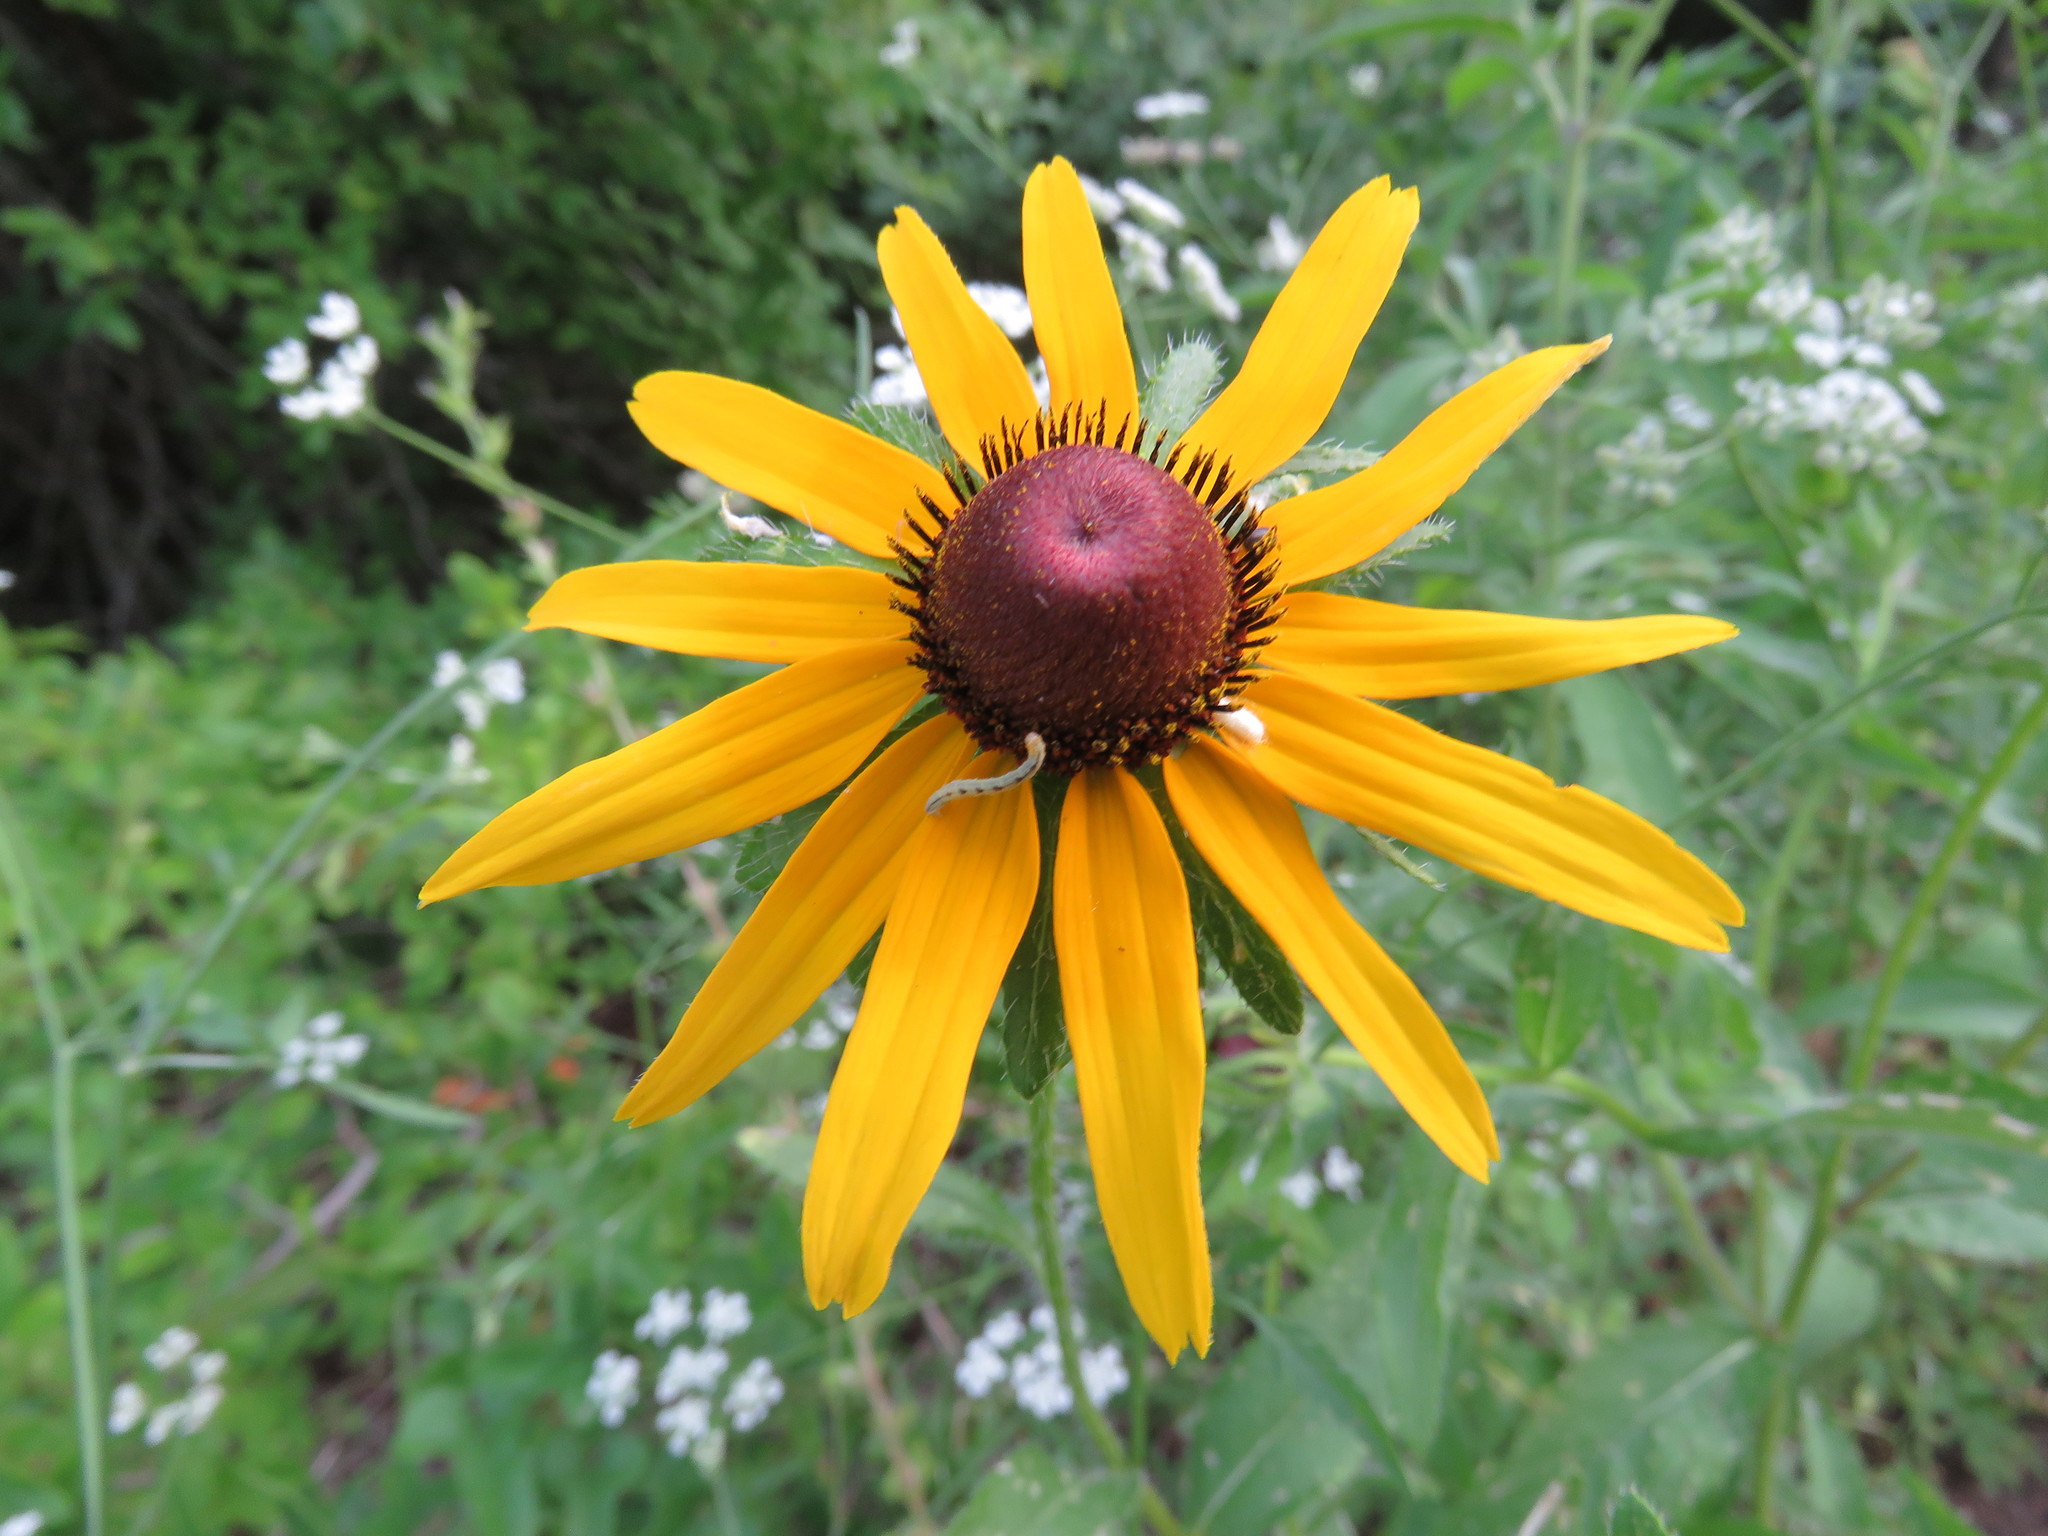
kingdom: Plantae
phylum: Tracheophyta
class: Magnoliopsida
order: Asterales
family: Asteraceae
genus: Rudbeckia
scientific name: Rudbeckia hirta
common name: Black-eyed-susan
